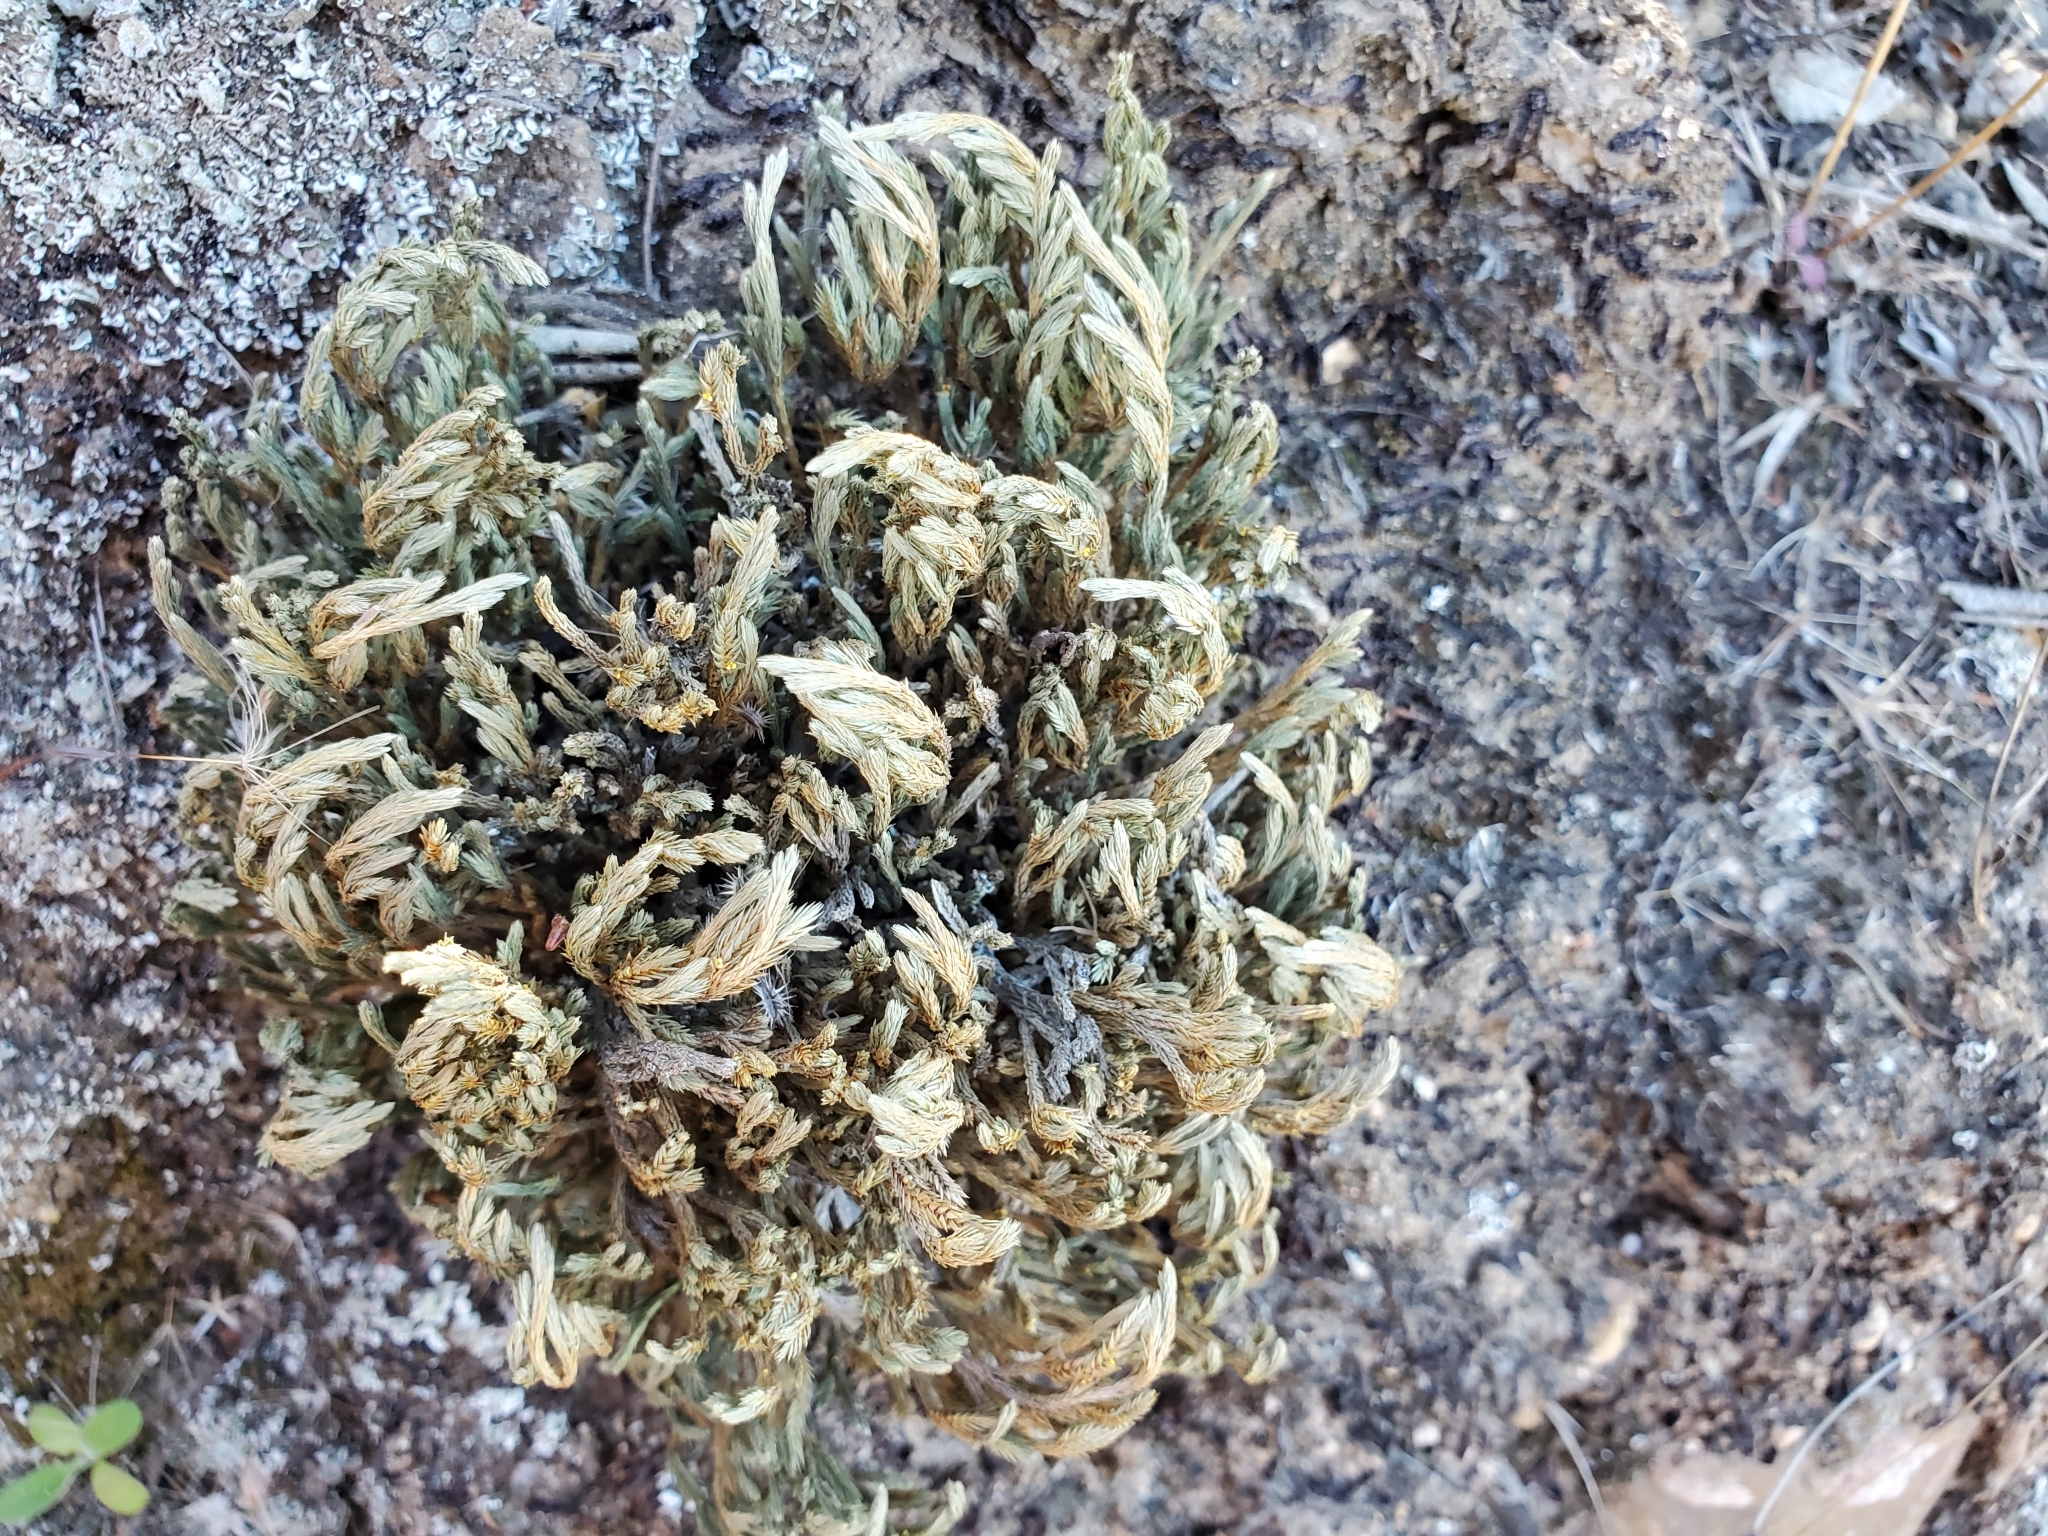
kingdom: Plantae
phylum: Tracheophyta
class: Lycopodiopsida
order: Selaginellales
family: Selaginellaceae
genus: Selaginella
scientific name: Selaginella bigelovii
